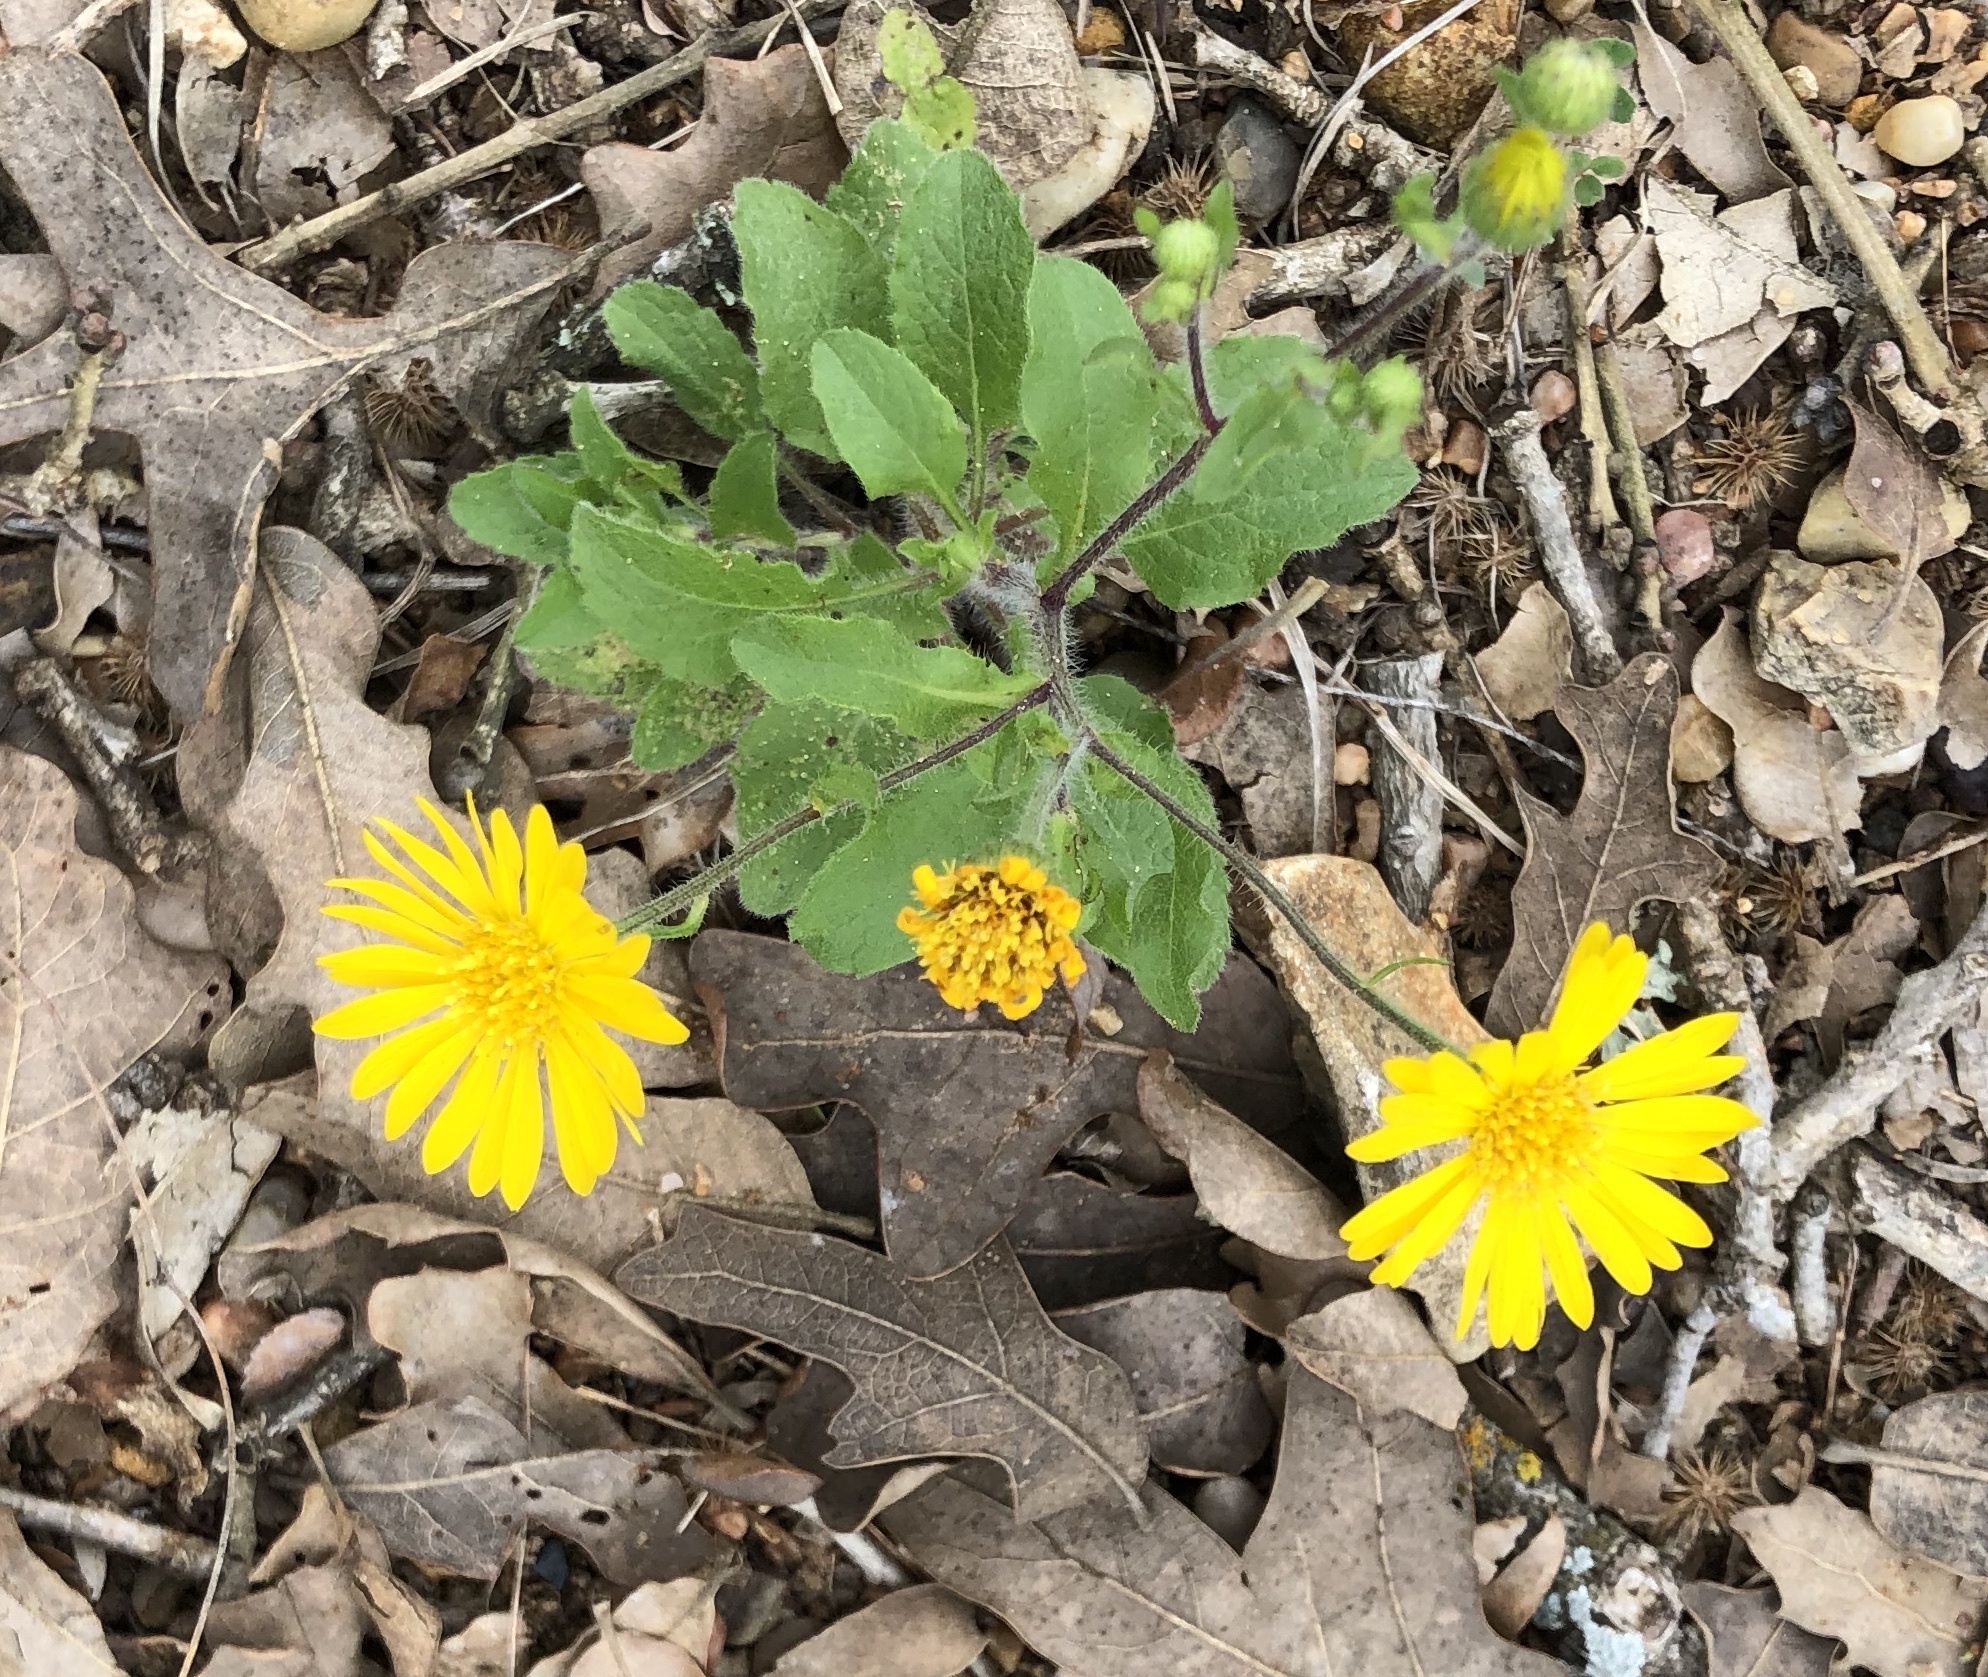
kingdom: Plantae
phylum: Tracheophyta
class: Magnoliopsida
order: Asterales
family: Asteraceae
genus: Heterotheca
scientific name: Heterotheca subaxillaris
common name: Camphorweed
